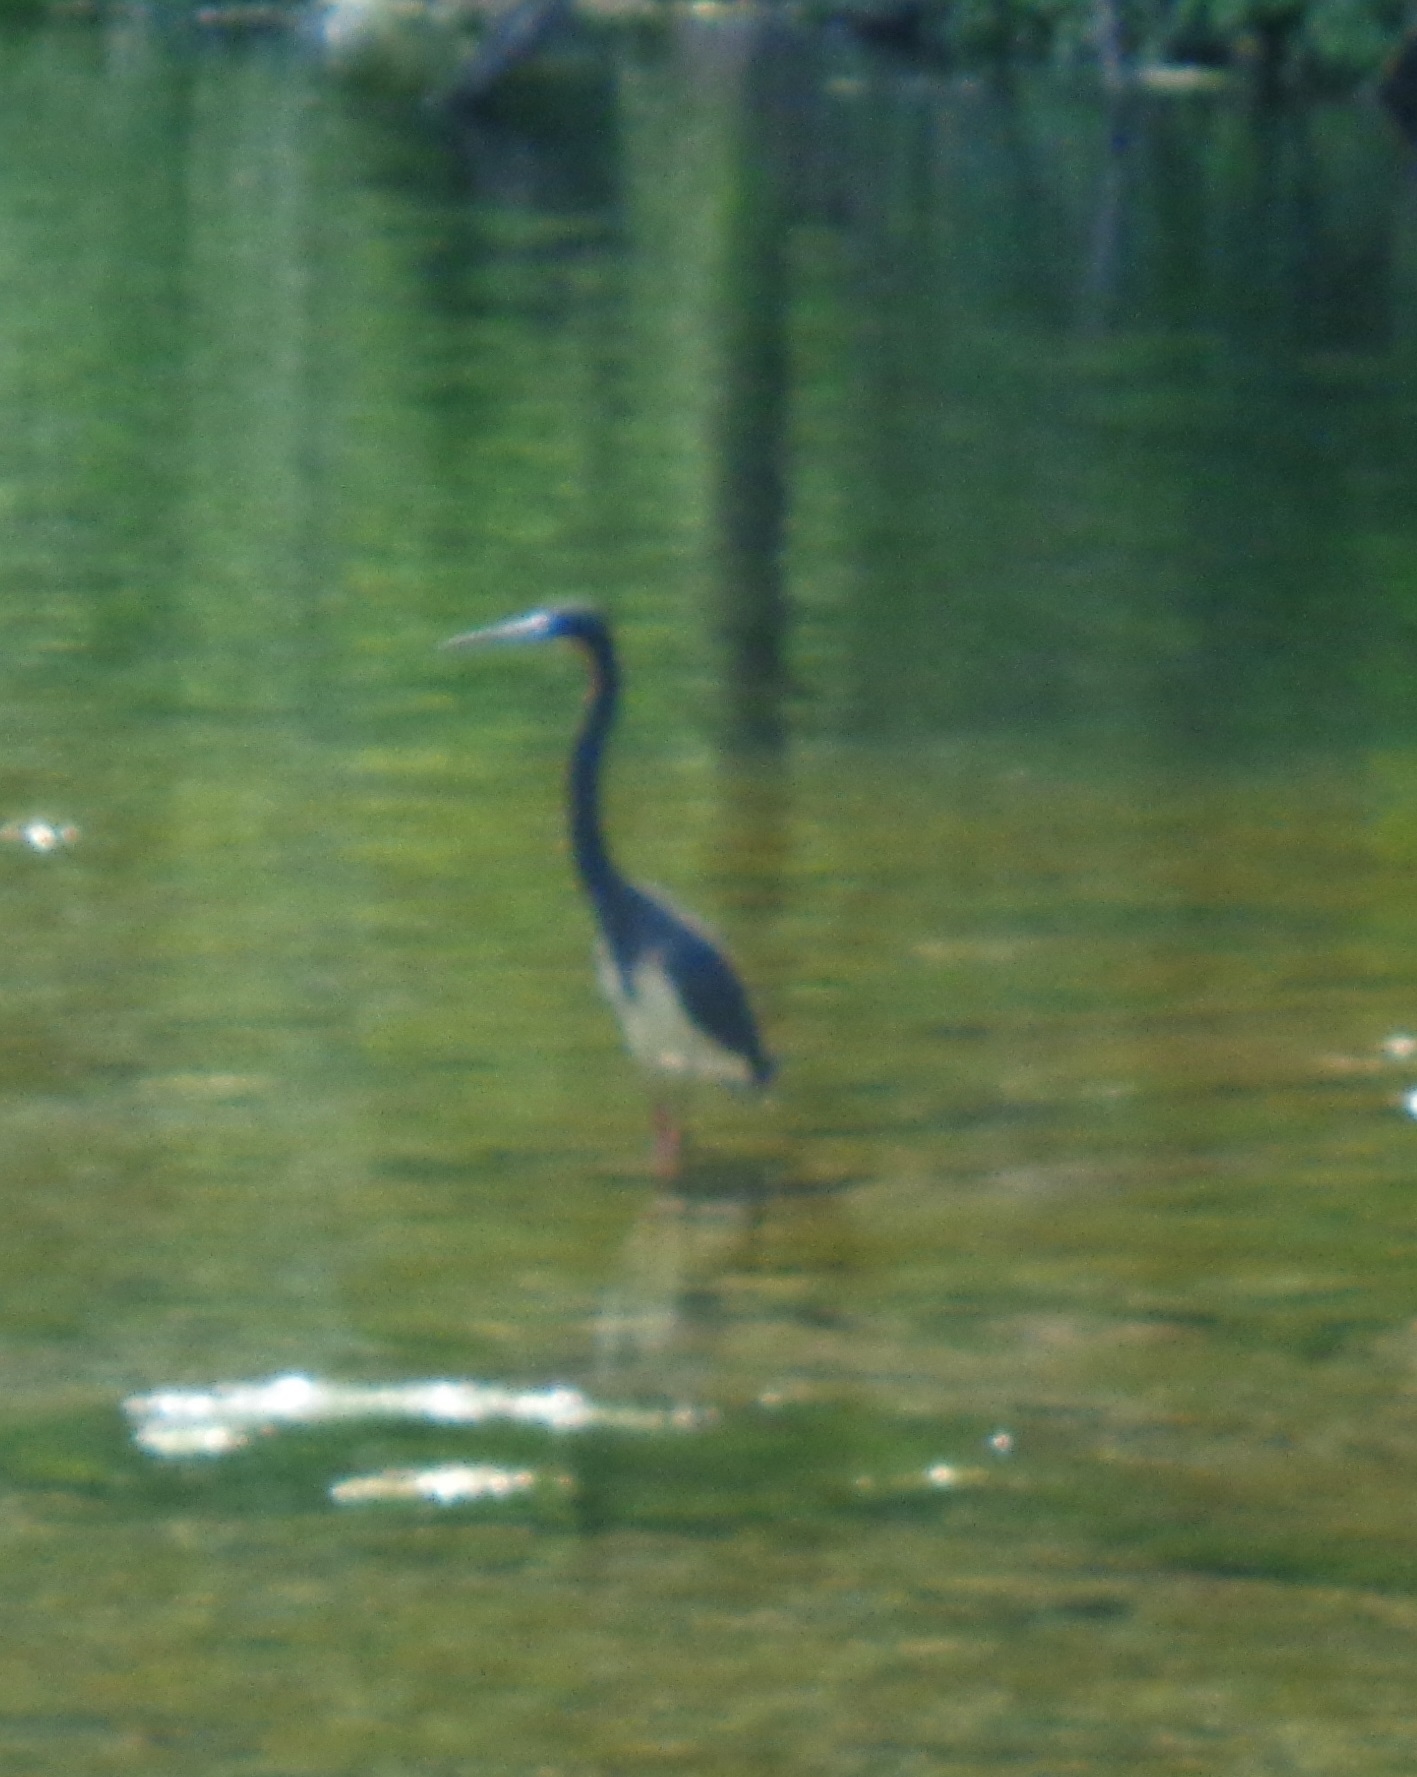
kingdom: Animalia
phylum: Chordata
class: Aves
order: Pelecaniformes
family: Ardeidae
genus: Egretta
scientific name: Egretta tricolor
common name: Tricolored heron
